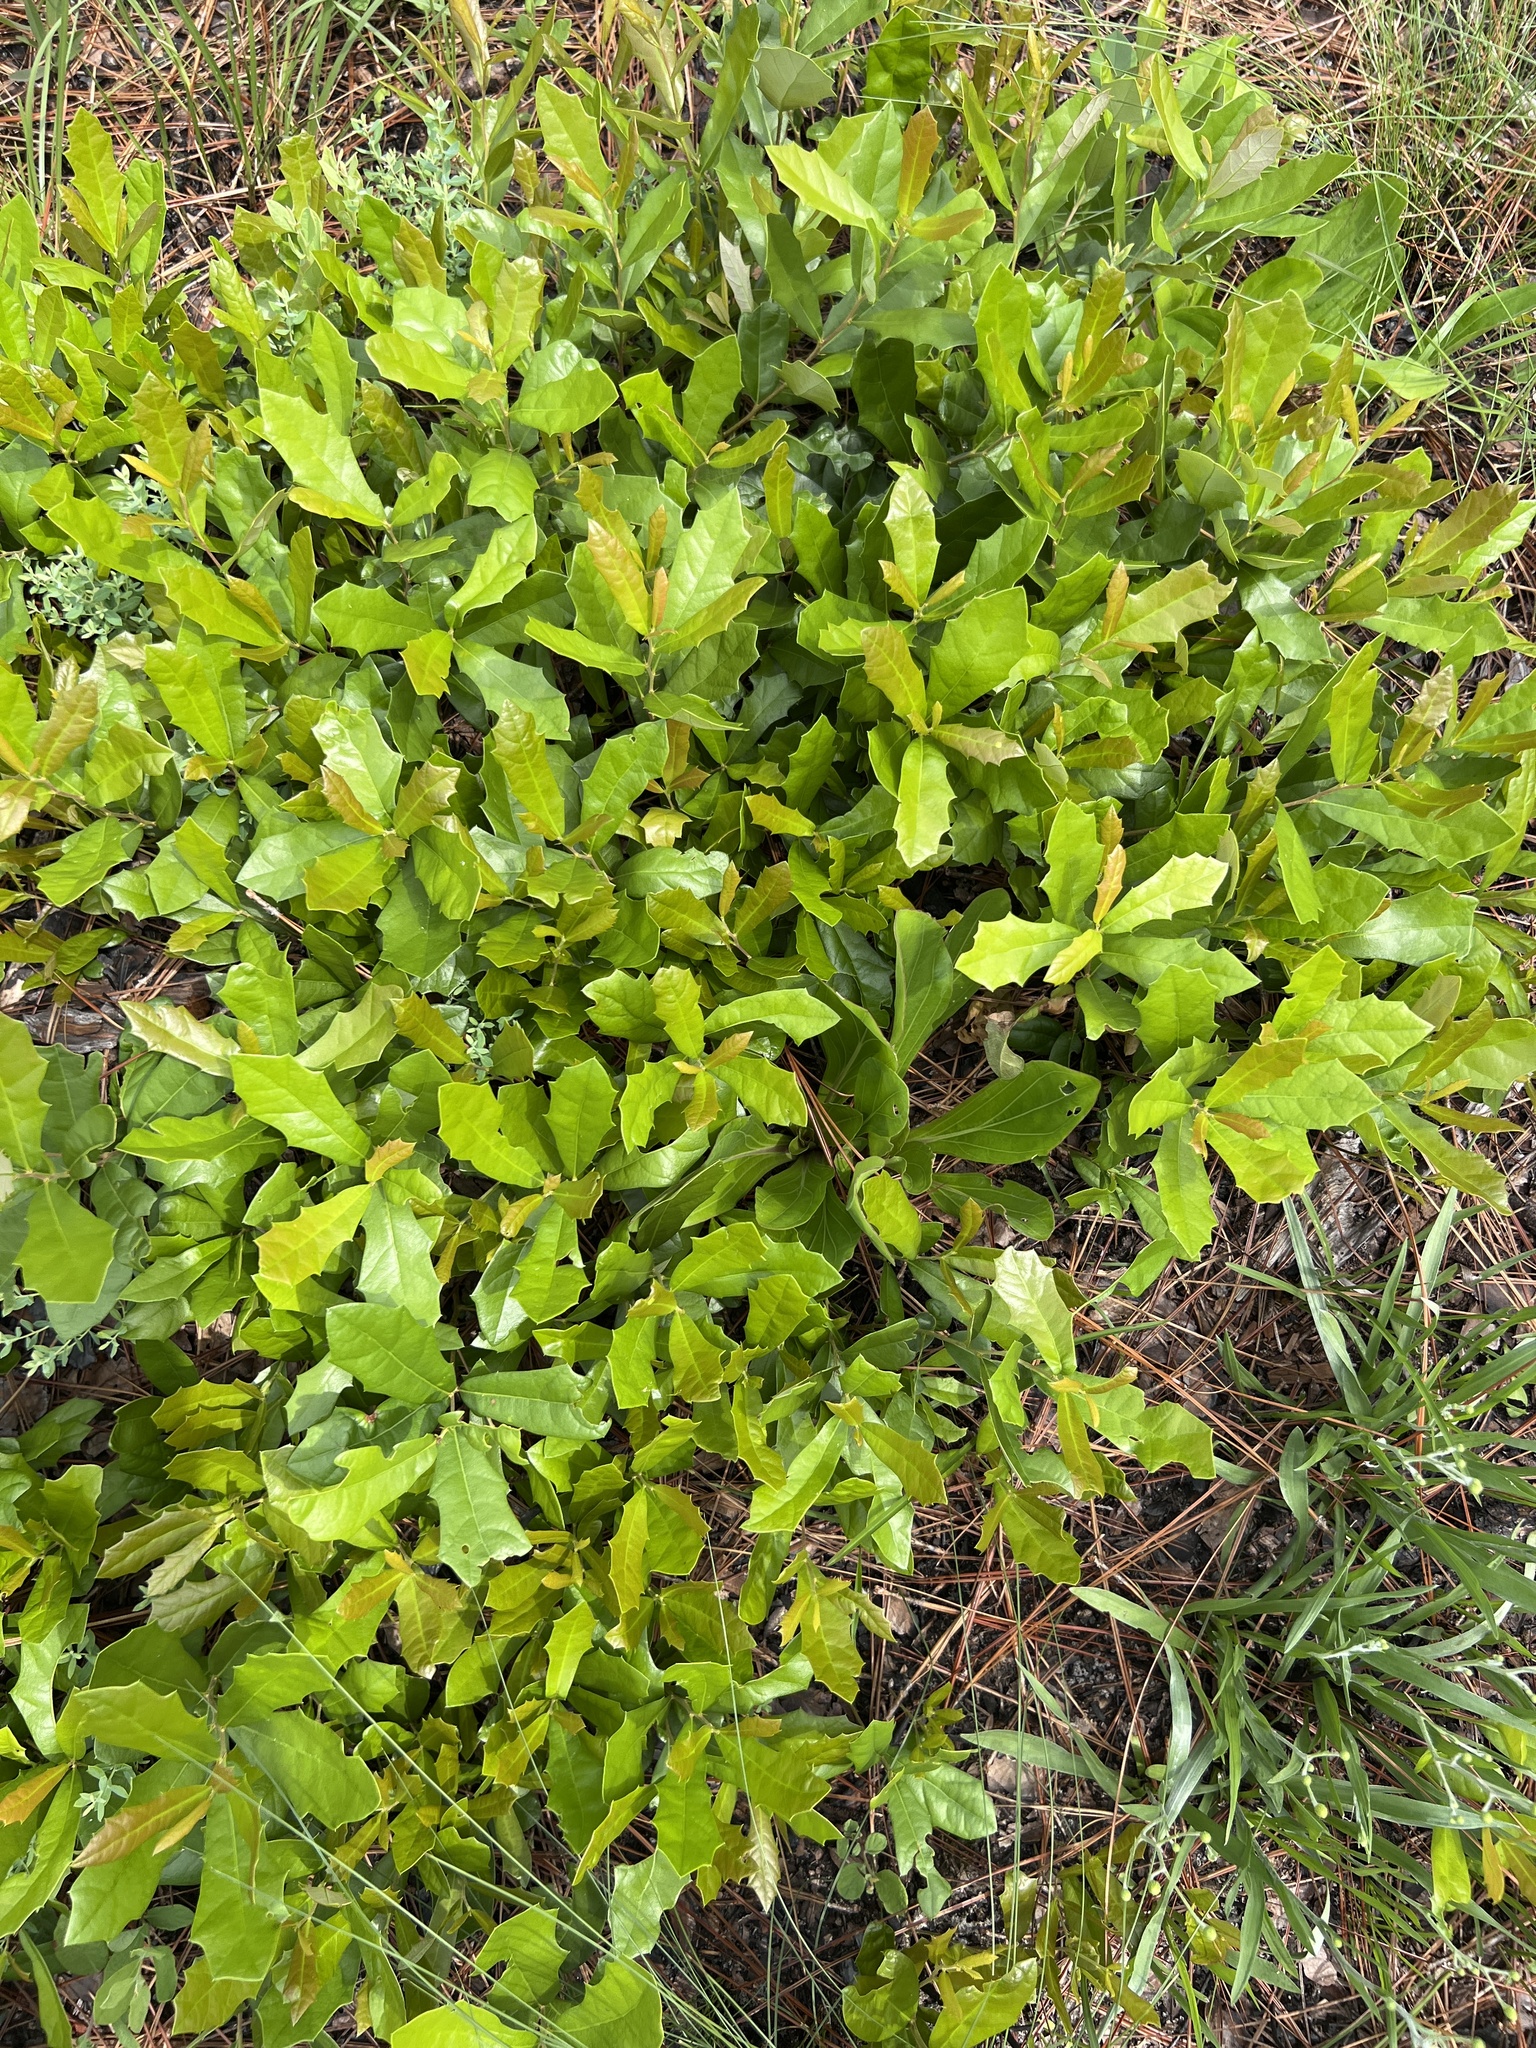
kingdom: Plantae
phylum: Tracheophyta
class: Magnoliopsida
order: Fagales
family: Fagaceae
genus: Quercus
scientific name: Quercus minima
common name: Dwarf live oak
